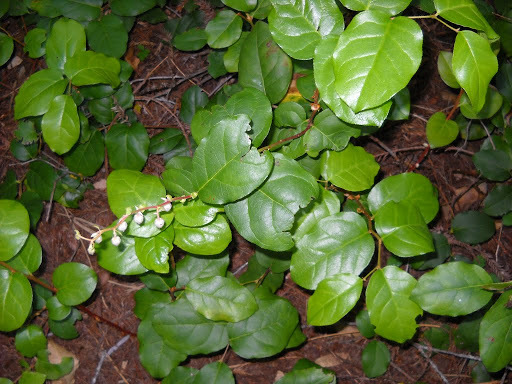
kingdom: Plantae
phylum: Tracheophyta
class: Magnoliopsida
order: Ericales
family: Ericaceae
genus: Gaultheria
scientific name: Gaultheria shallon
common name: Shallon
